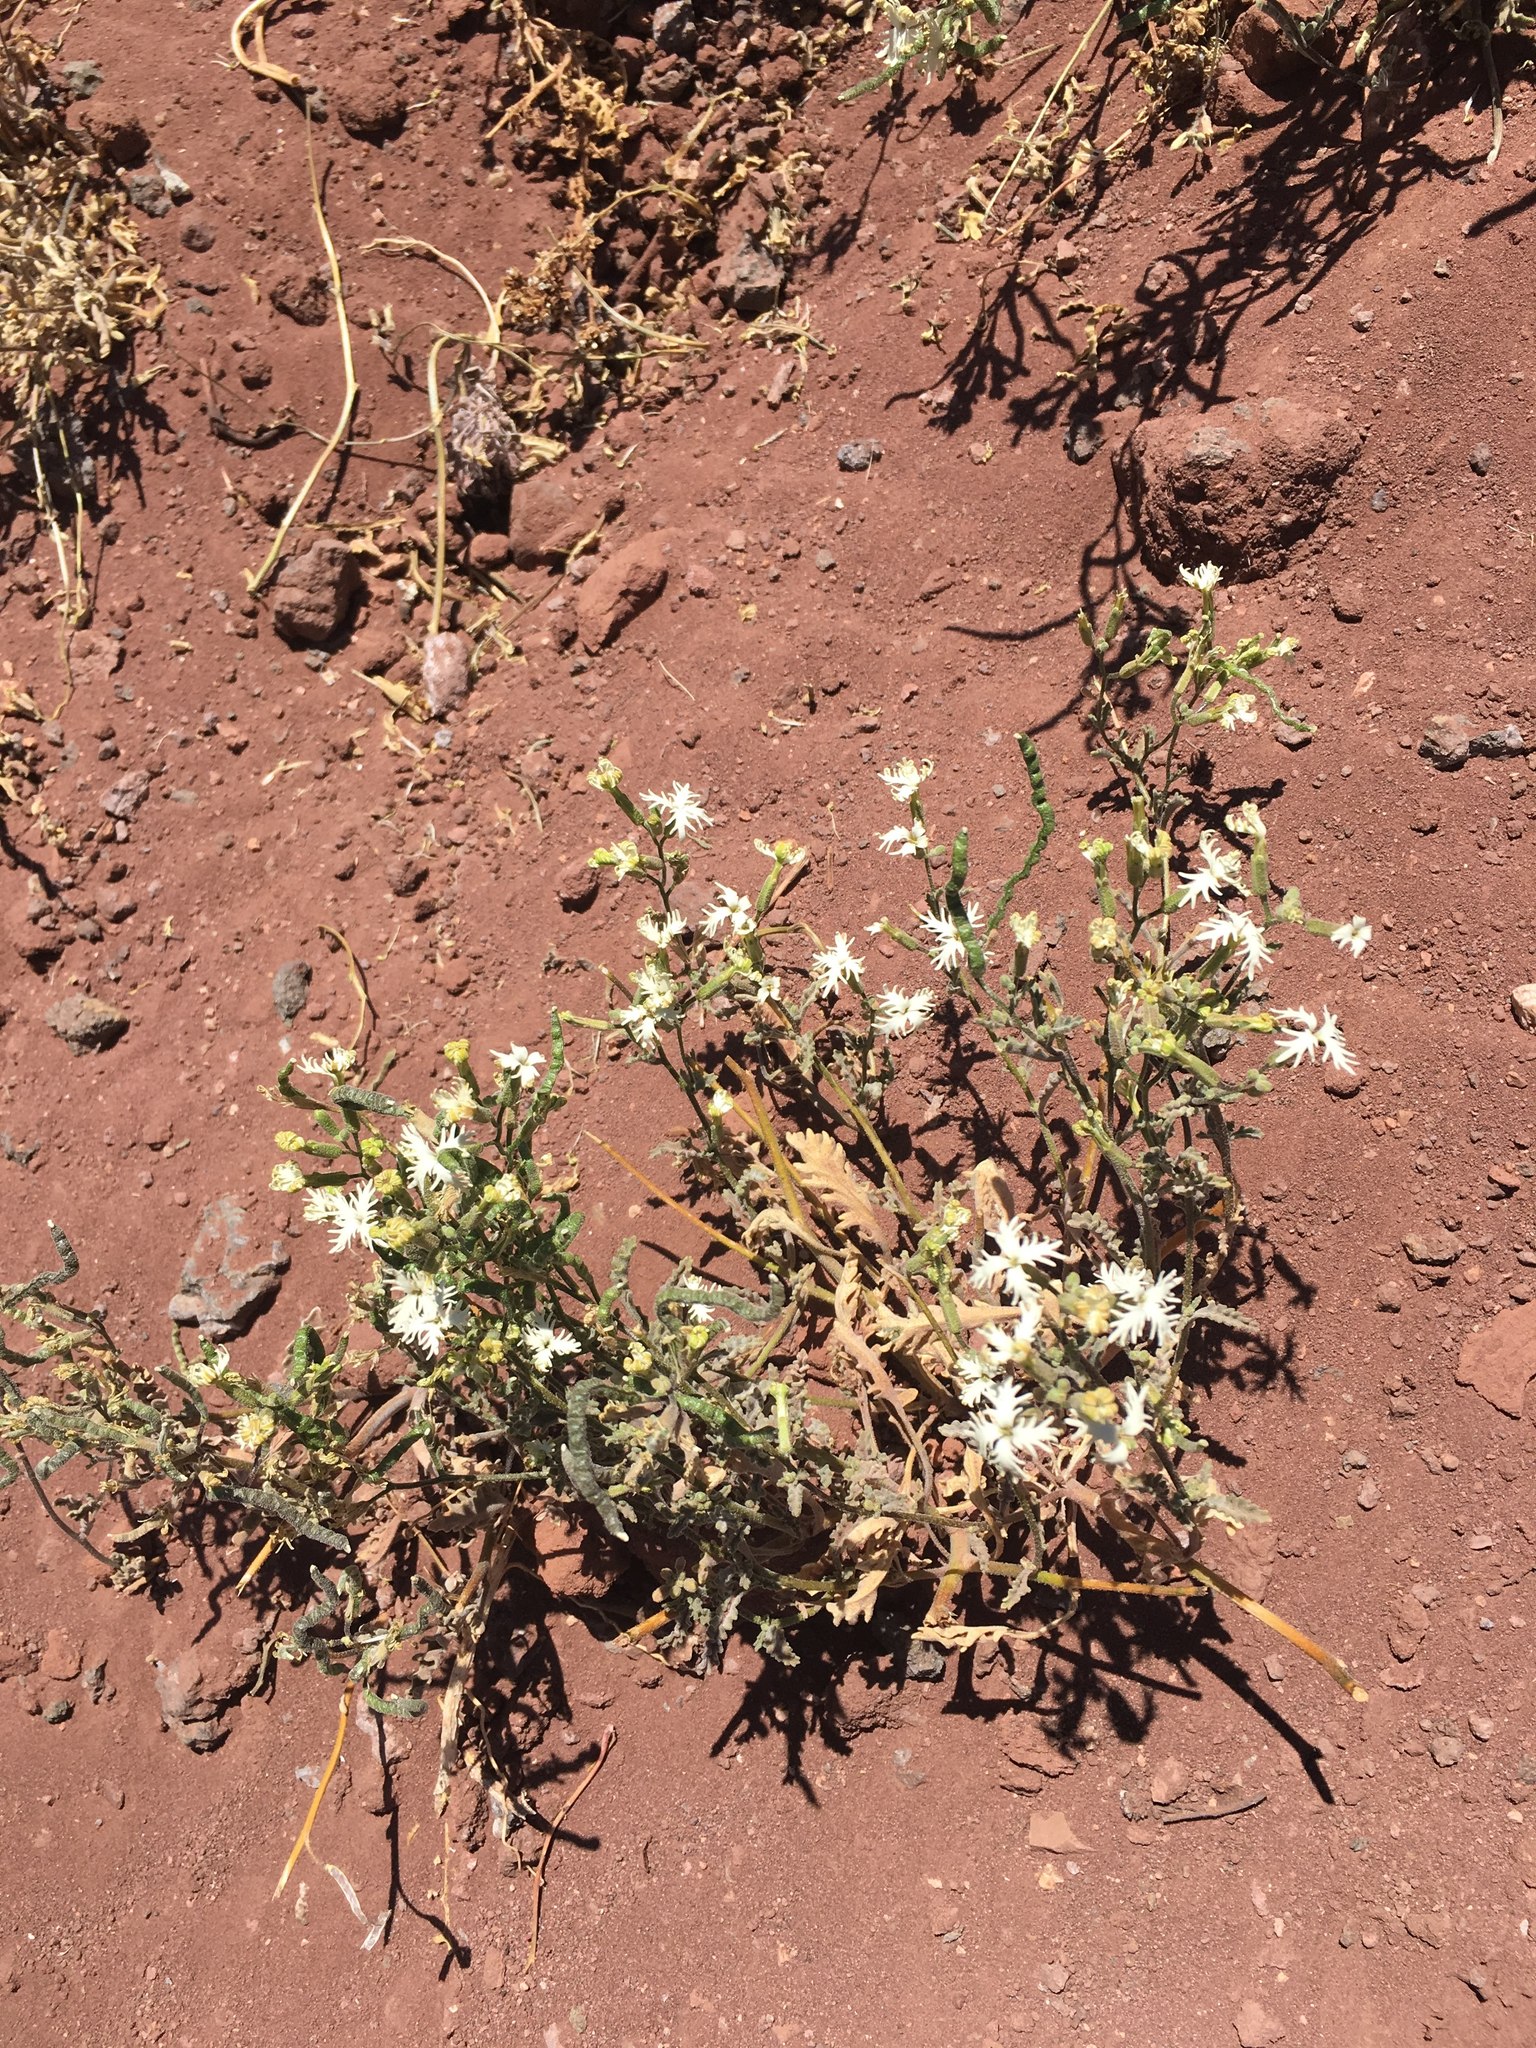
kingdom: Plantae
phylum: Tracheophyta
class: Magnoliopsida
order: Brassicales
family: Brassicaceae
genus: Schizopetalon
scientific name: Schizopetalon rupestre
